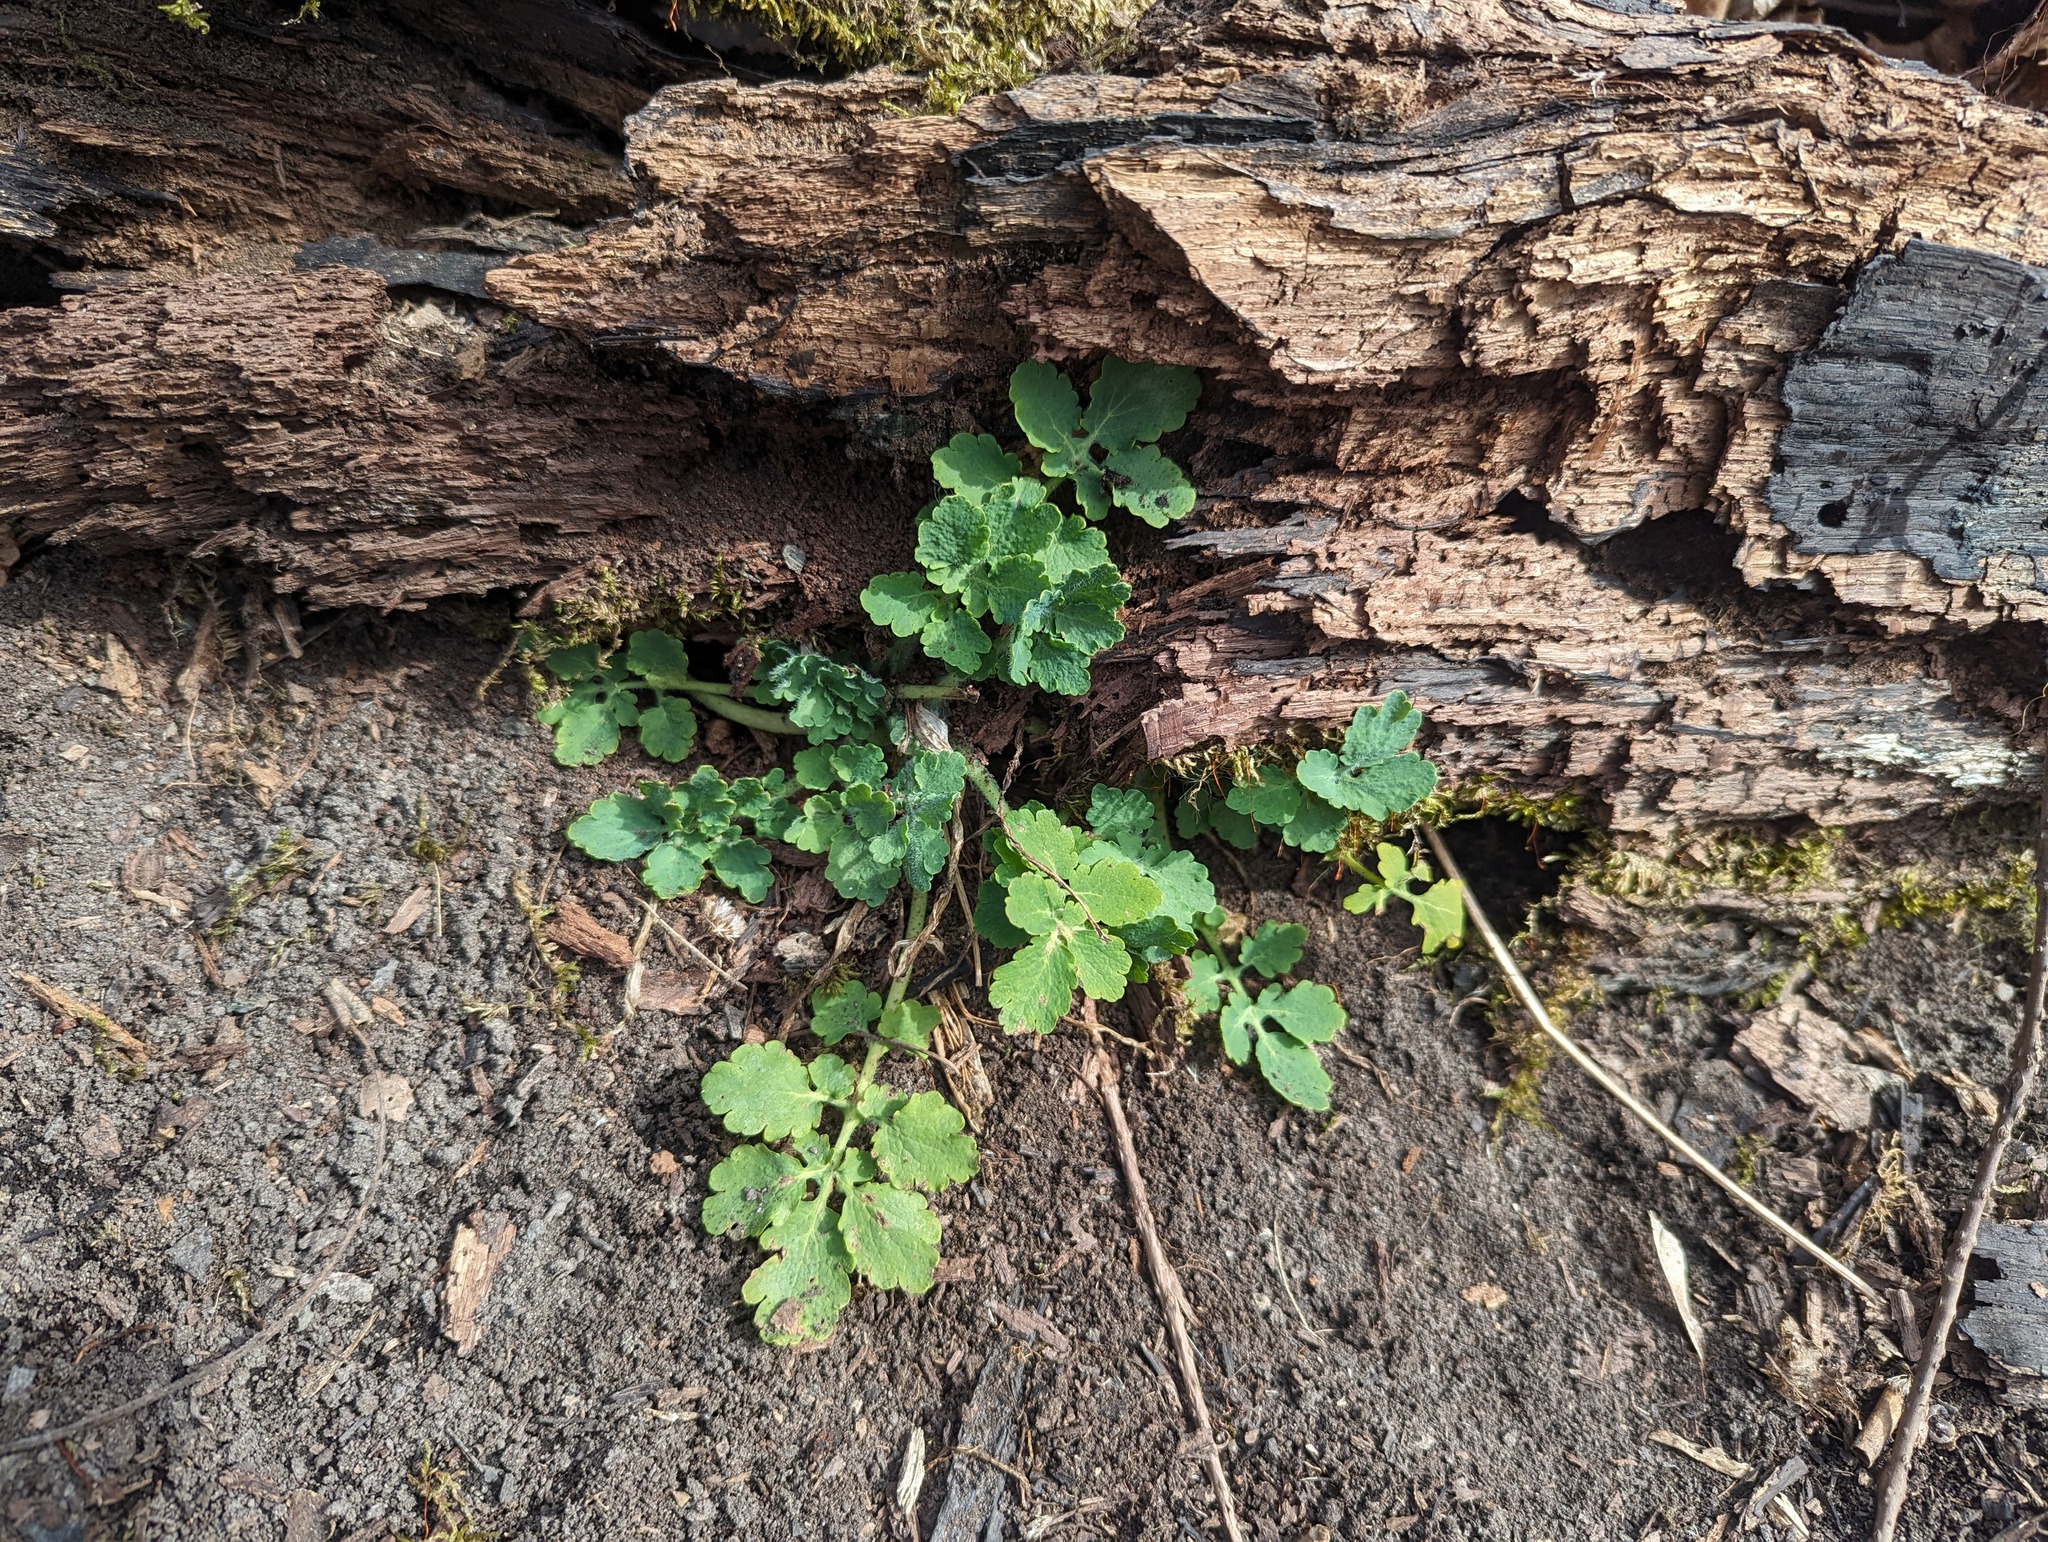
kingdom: Plantae
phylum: Tracheophyta
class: Magnoliopsida
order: Ranunculales
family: Papaveraceae
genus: Chelidonium
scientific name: Chelidonium majus
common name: Greater celandine
